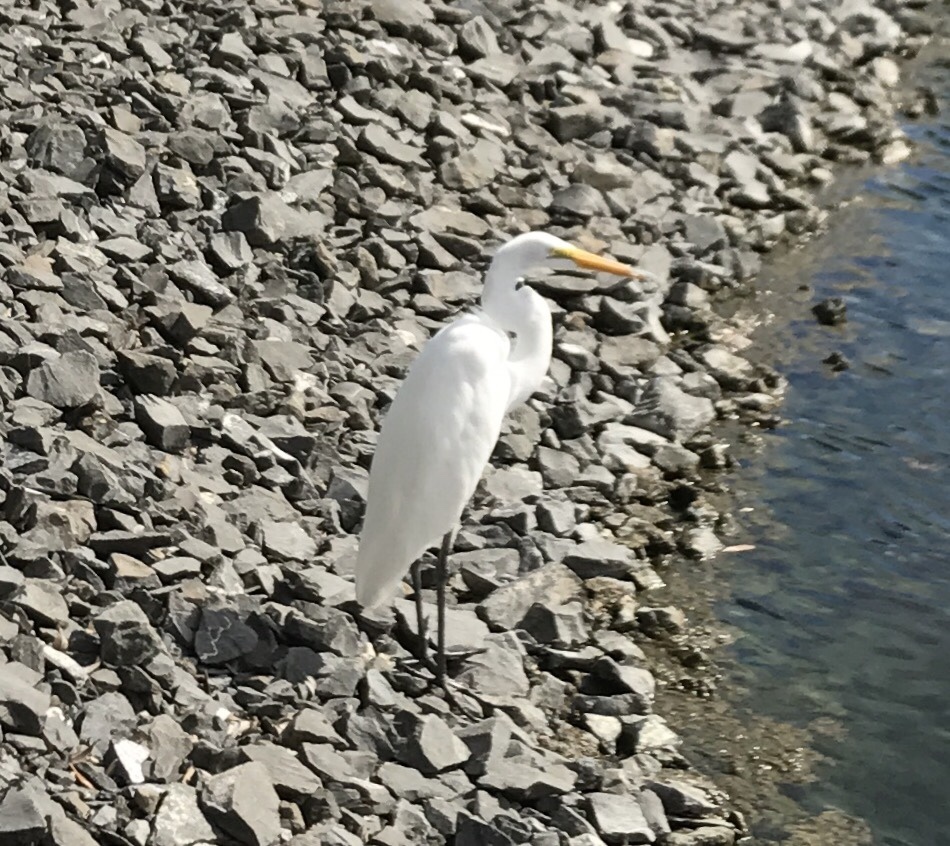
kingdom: Animalia
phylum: Chordata
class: Aves
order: Pelecaniformes
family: Ardeidae
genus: Ardea
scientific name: Ardea alba
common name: Great egret
